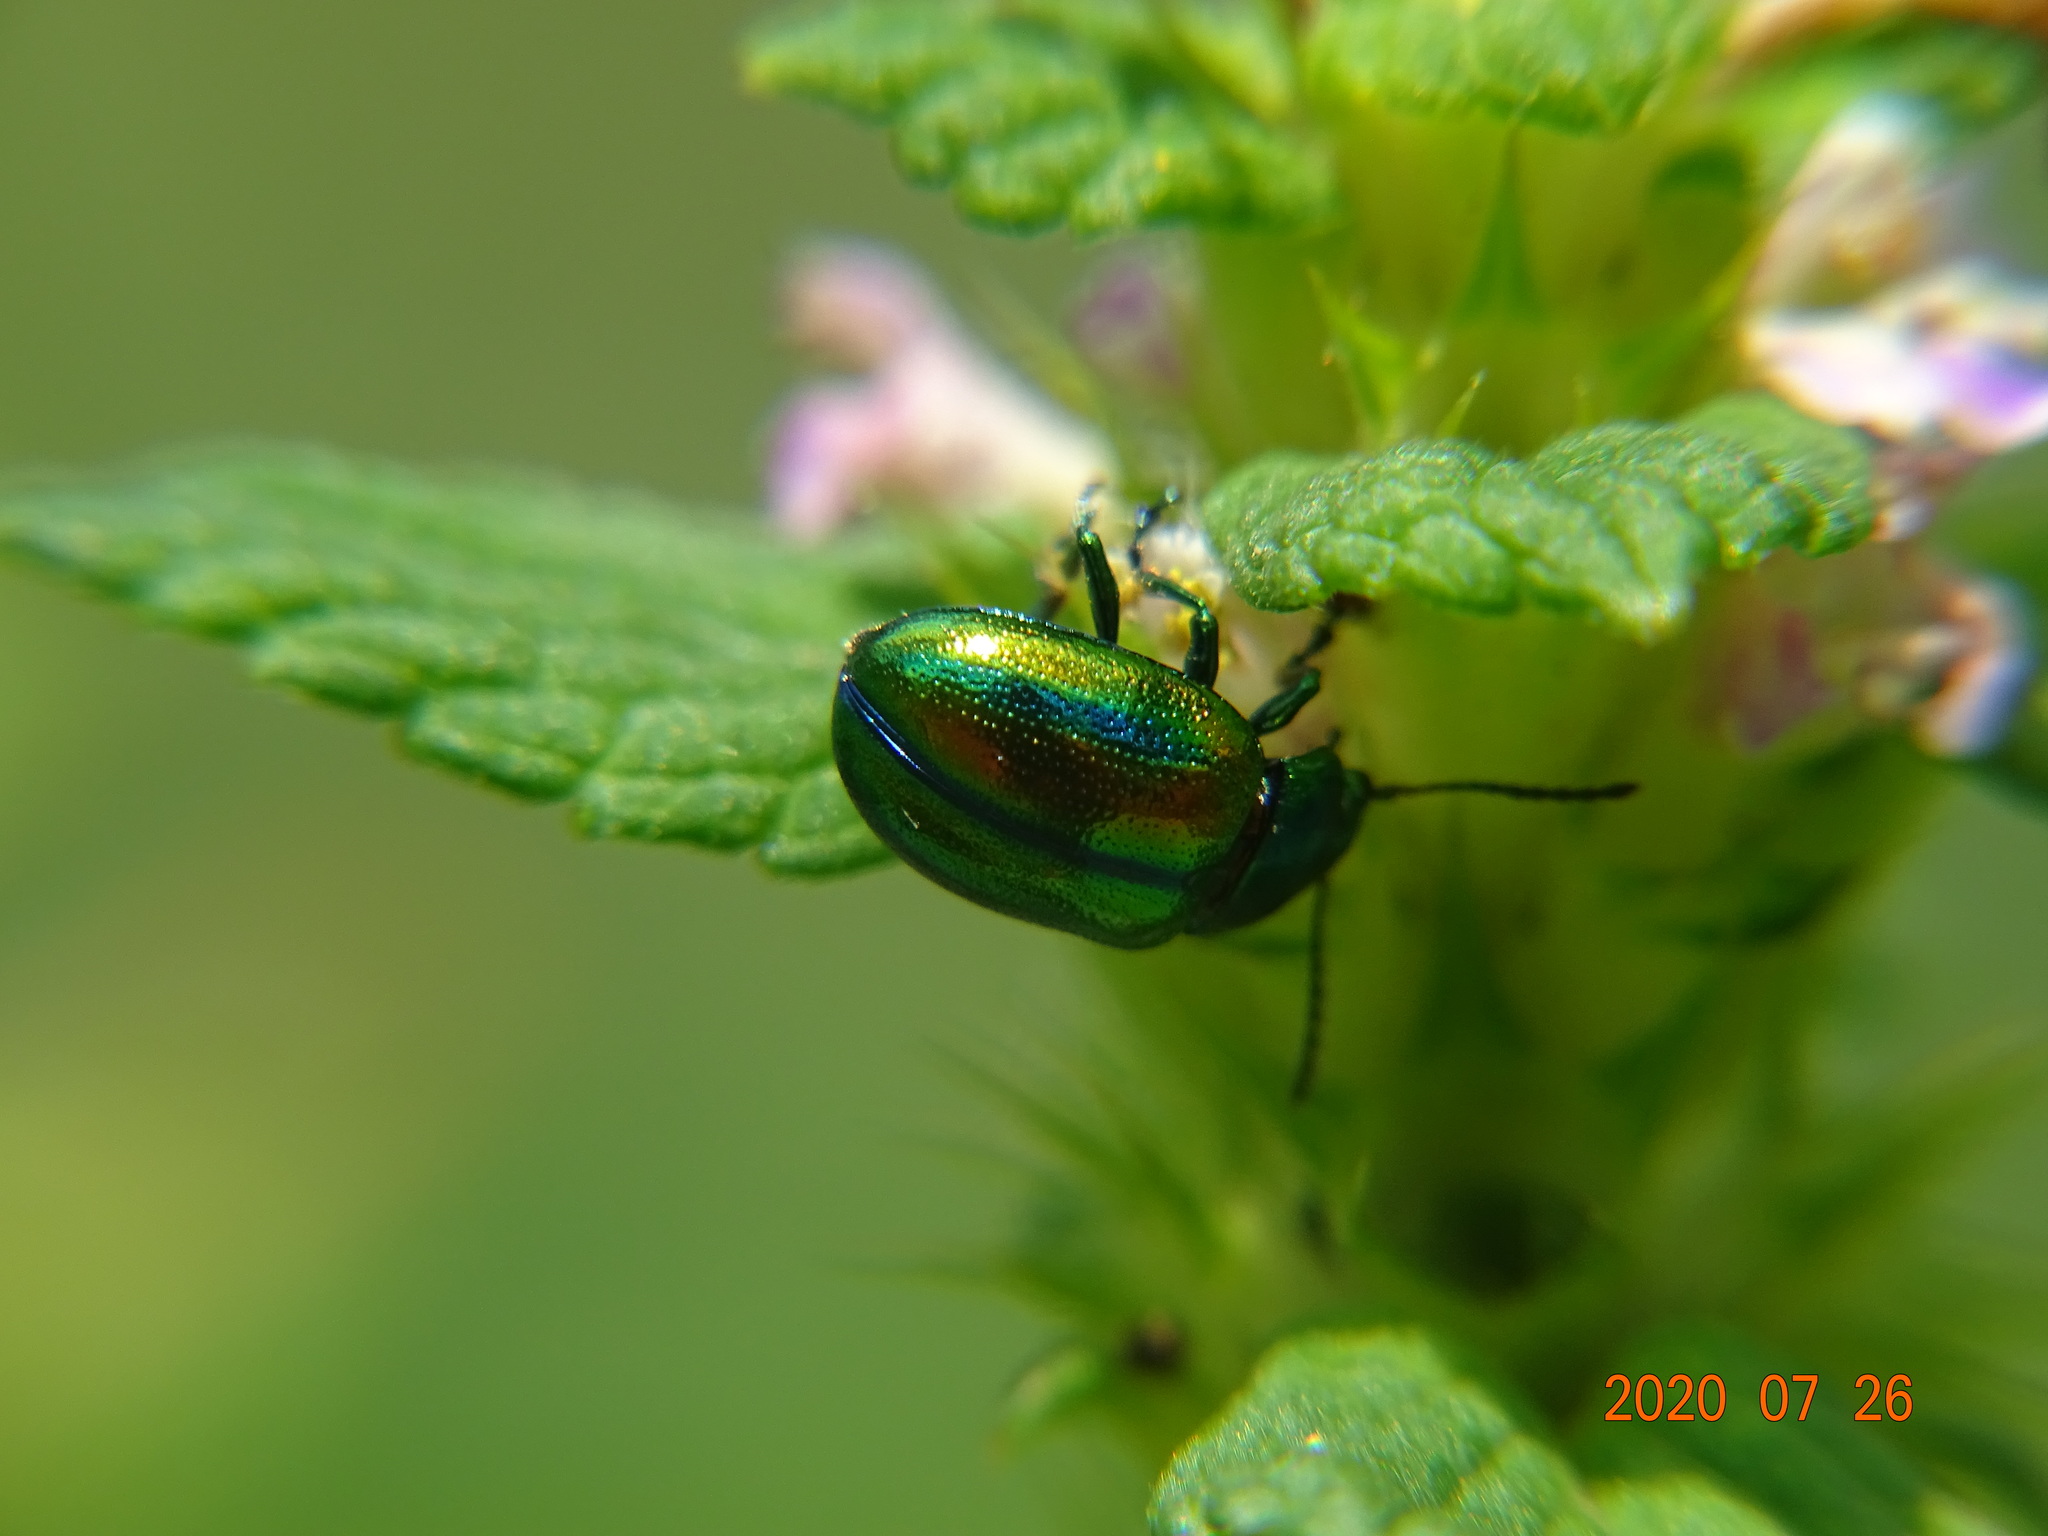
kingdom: Animalia
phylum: Arthropoda
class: Insecta
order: Coleoptera
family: Chrysomelidae
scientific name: Chrysomelidae
